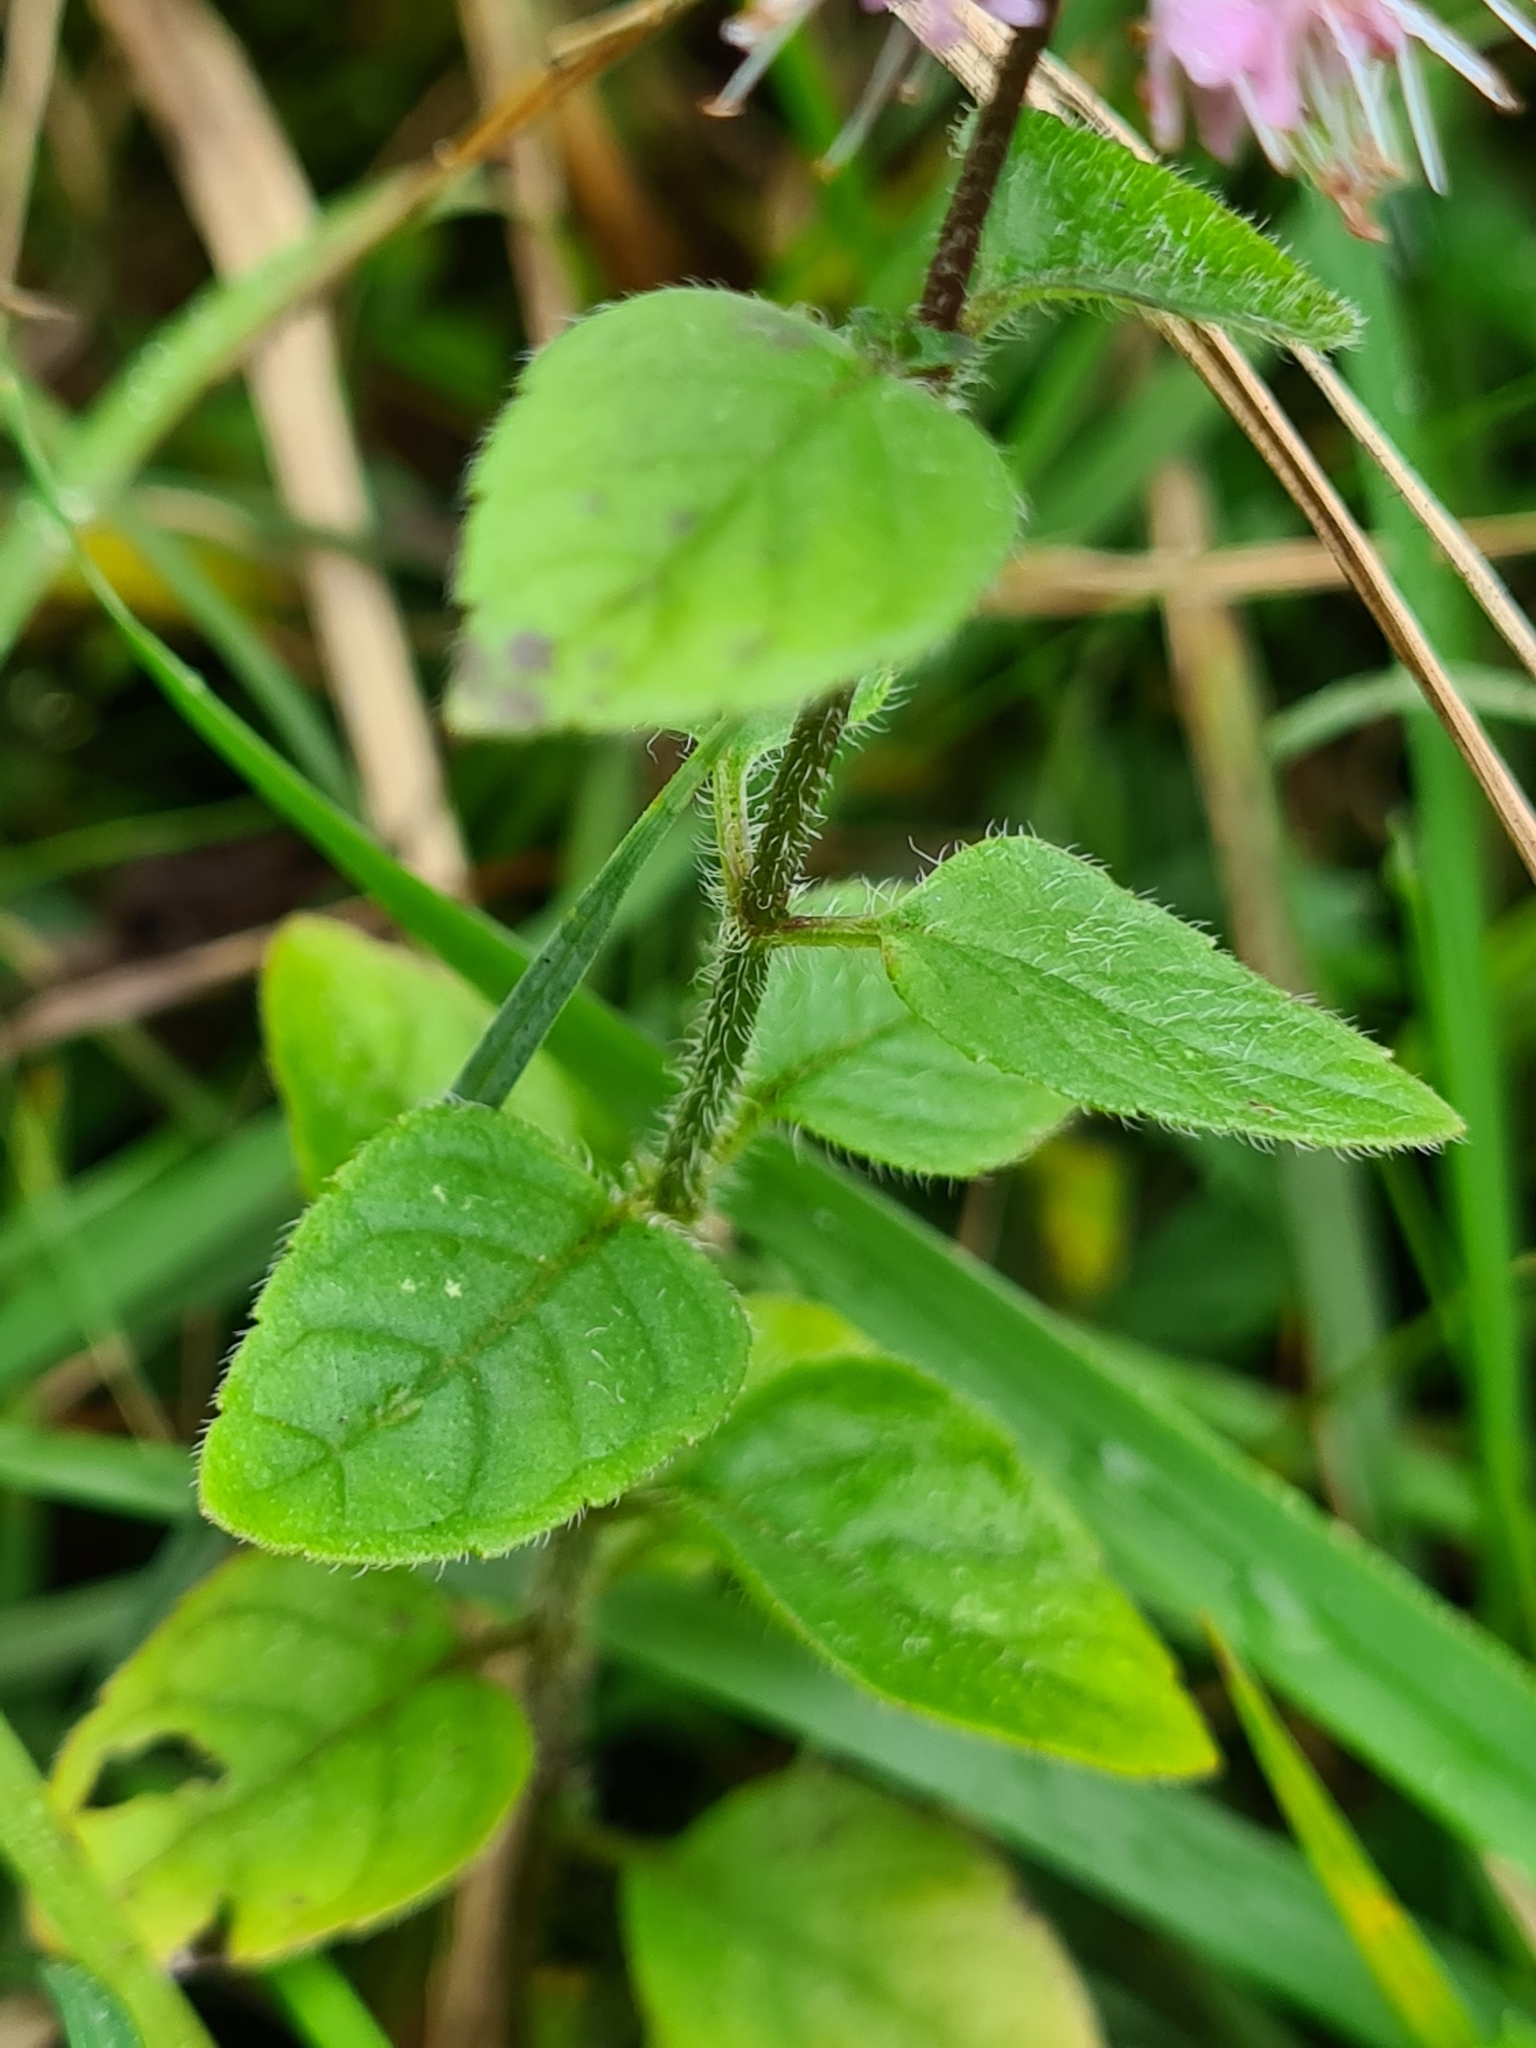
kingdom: Plantae
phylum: Tracheophyta
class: Magnoliopsida
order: Lamiales
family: Lamiaceae
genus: Mentha
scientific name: Mentha aquatica
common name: Water mint
